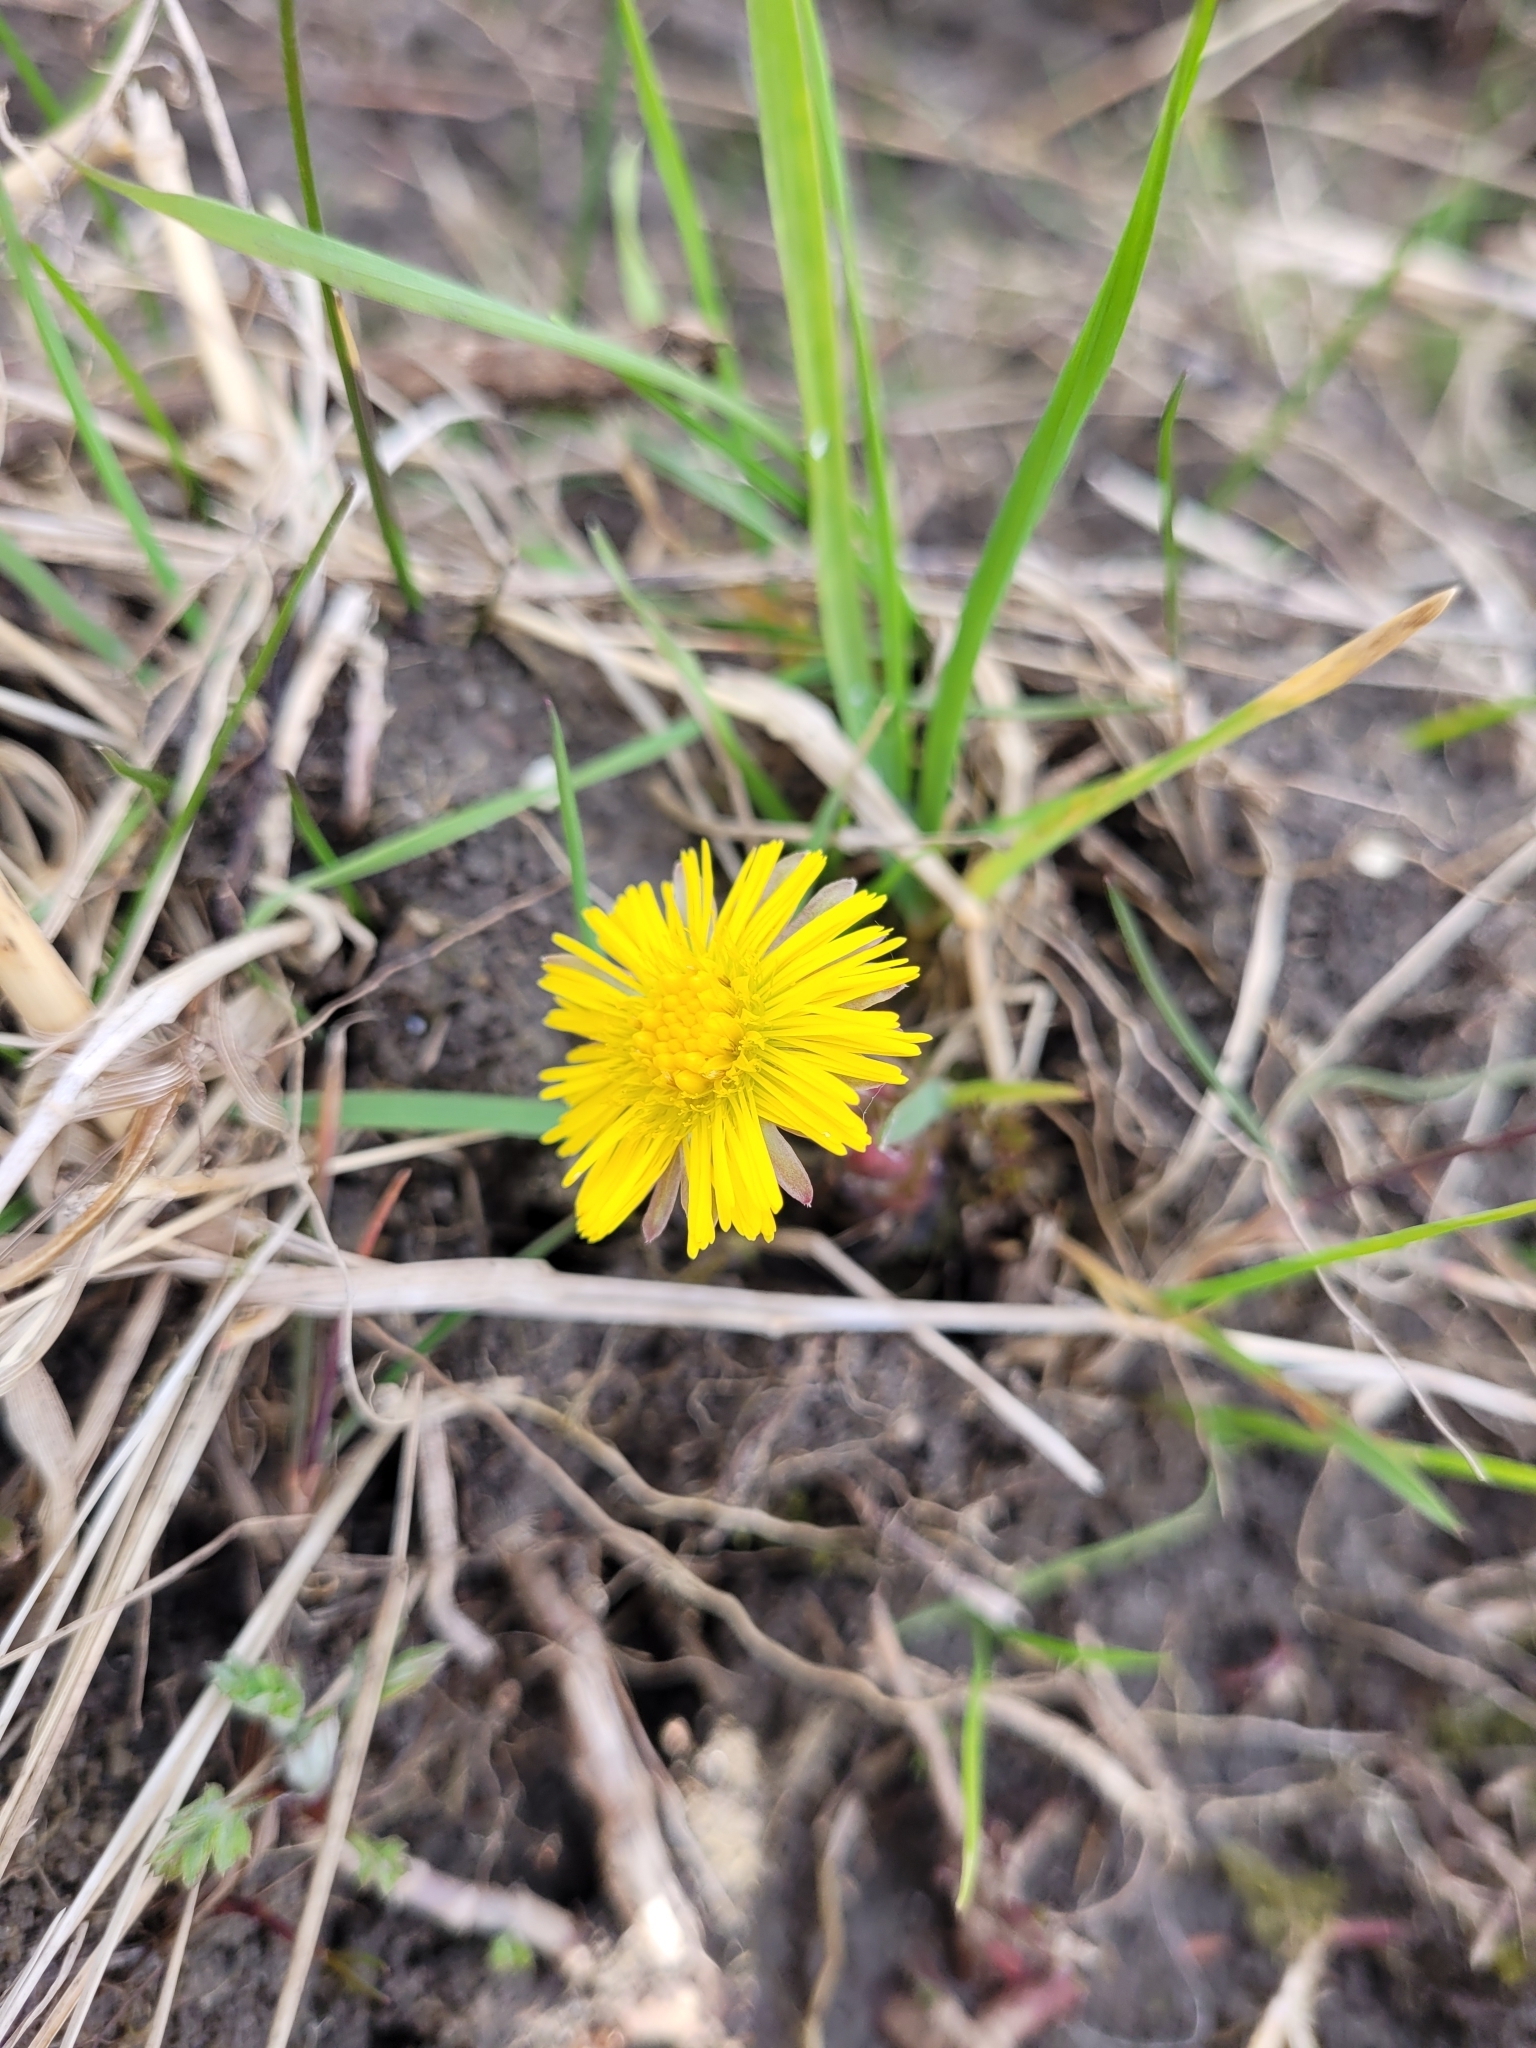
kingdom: Plantae
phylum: Tracheophyta
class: Magnoliopsida
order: Asterales
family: Asteraceae
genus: Tussilago
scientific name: Tussilago farfara
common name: Coltsfoot
